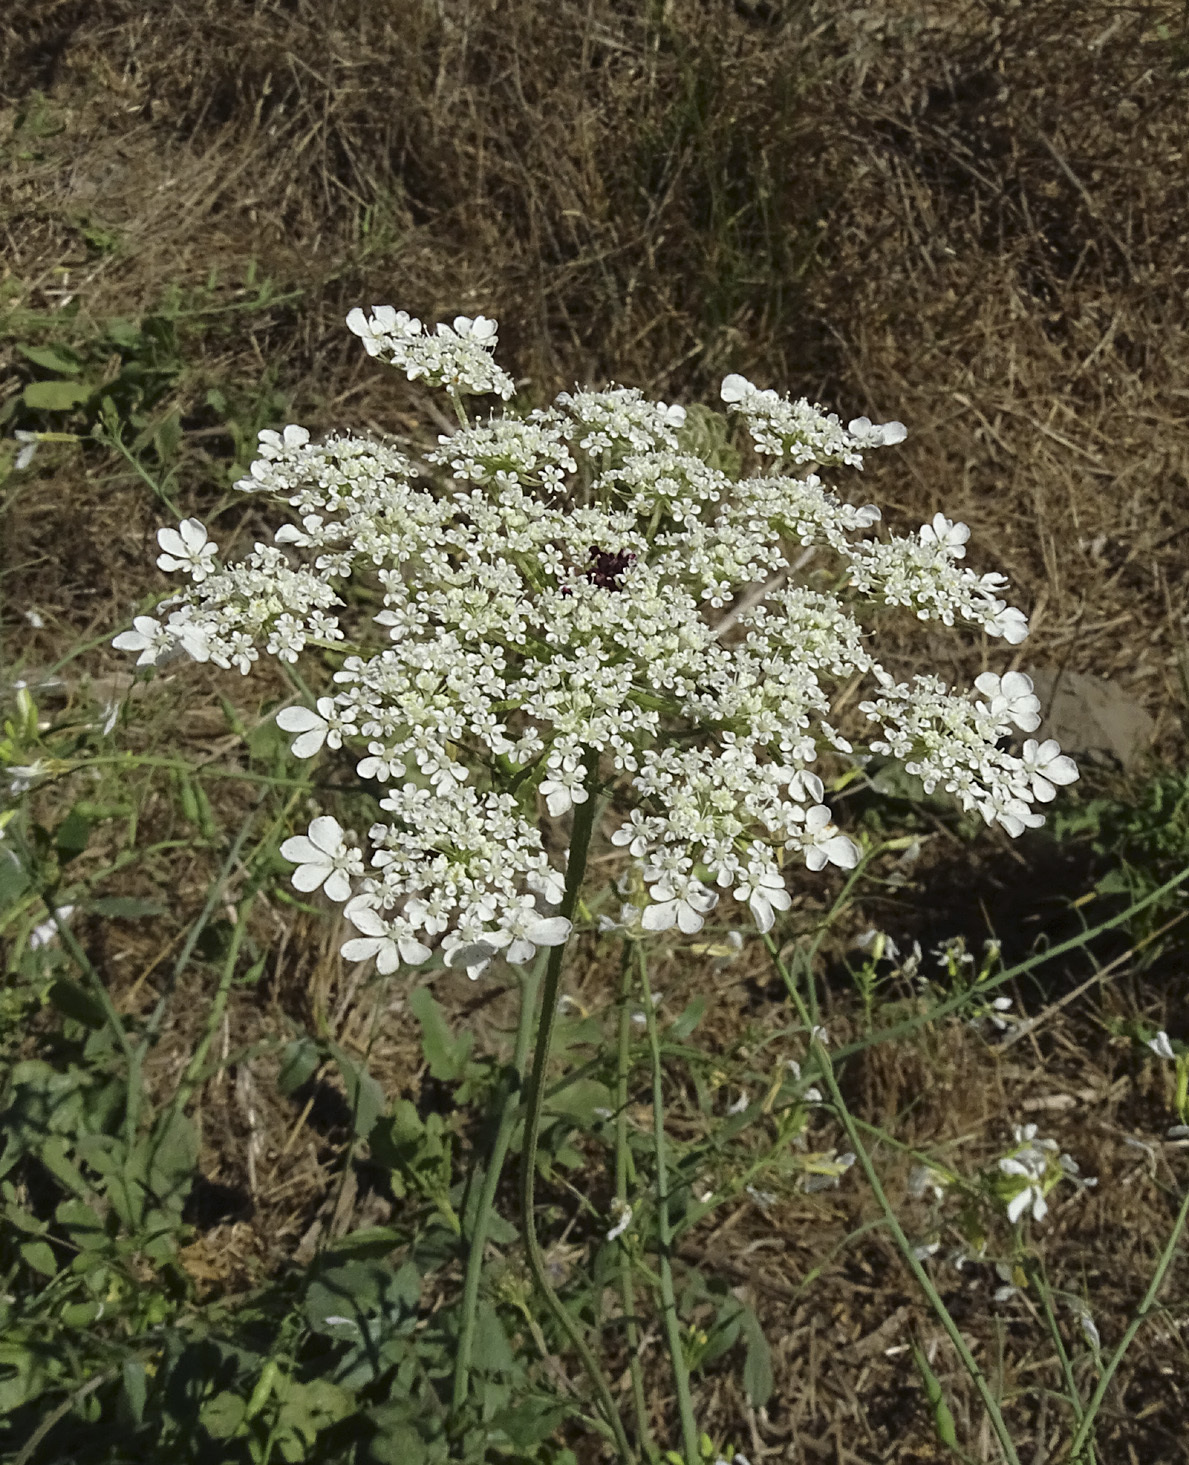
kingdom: Plantae
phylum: Tracheophyta
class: Magnoliopsida
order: Apiales
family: Apiaceae
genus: Daucus
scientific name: Daucus carota
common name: Wild carrot
